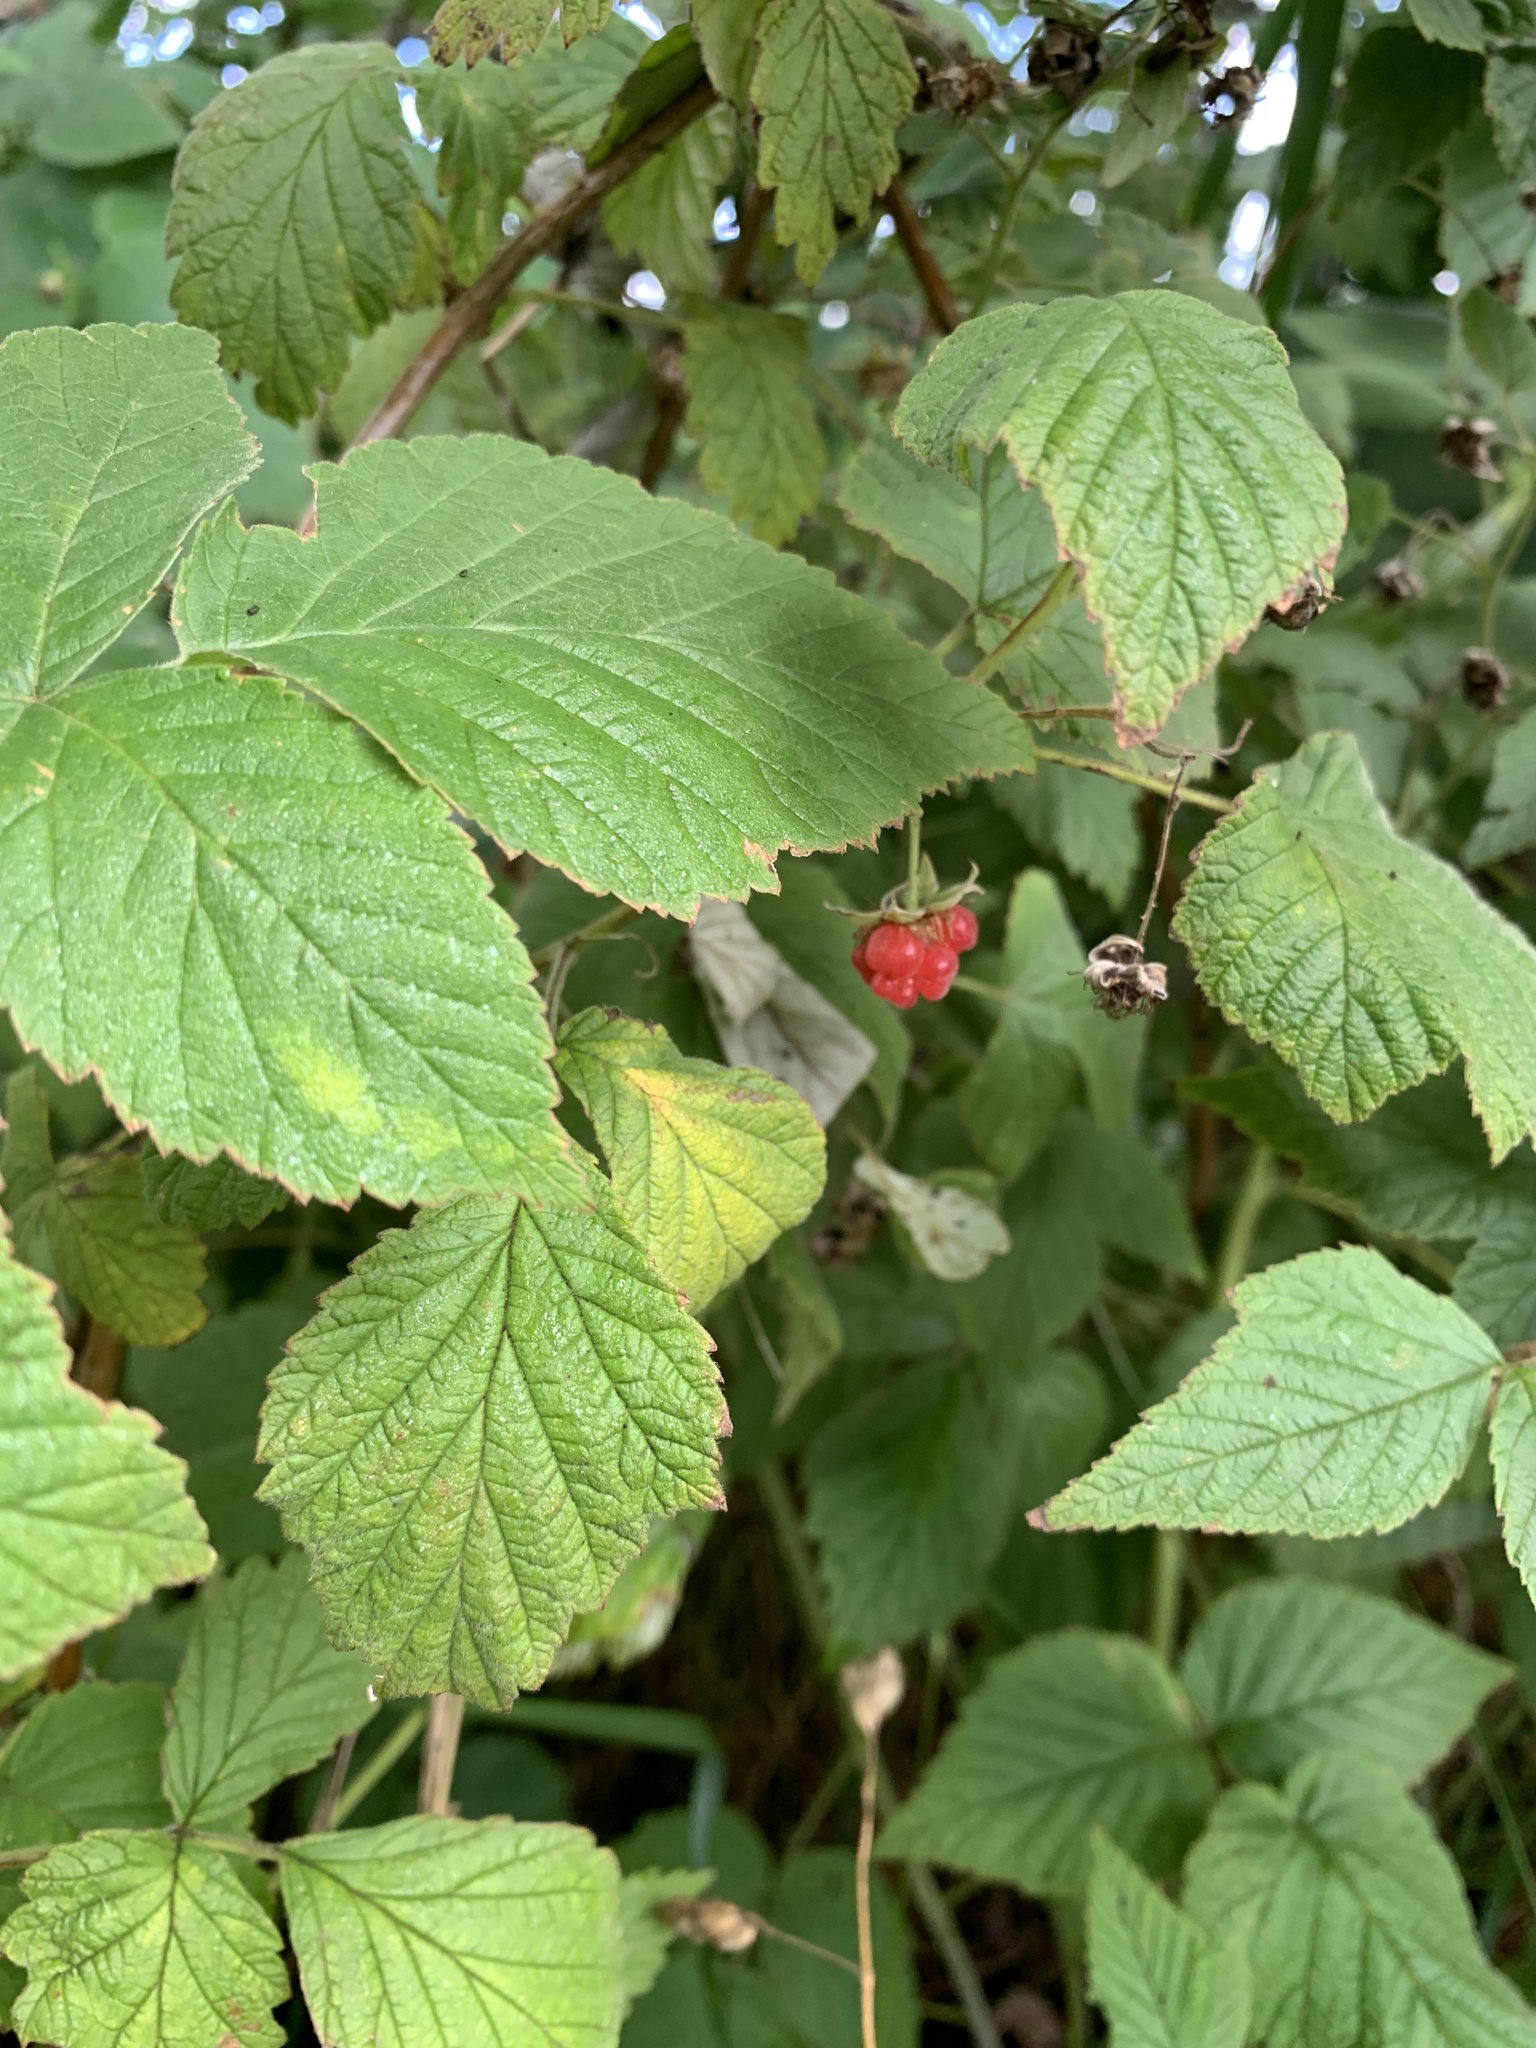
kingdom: Plantae
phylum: Tracheophyta
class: Magnoliopsida
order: Rosales
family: Rosaceae
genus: Rubus
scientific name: Rubus idaeus
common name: Raspberry
